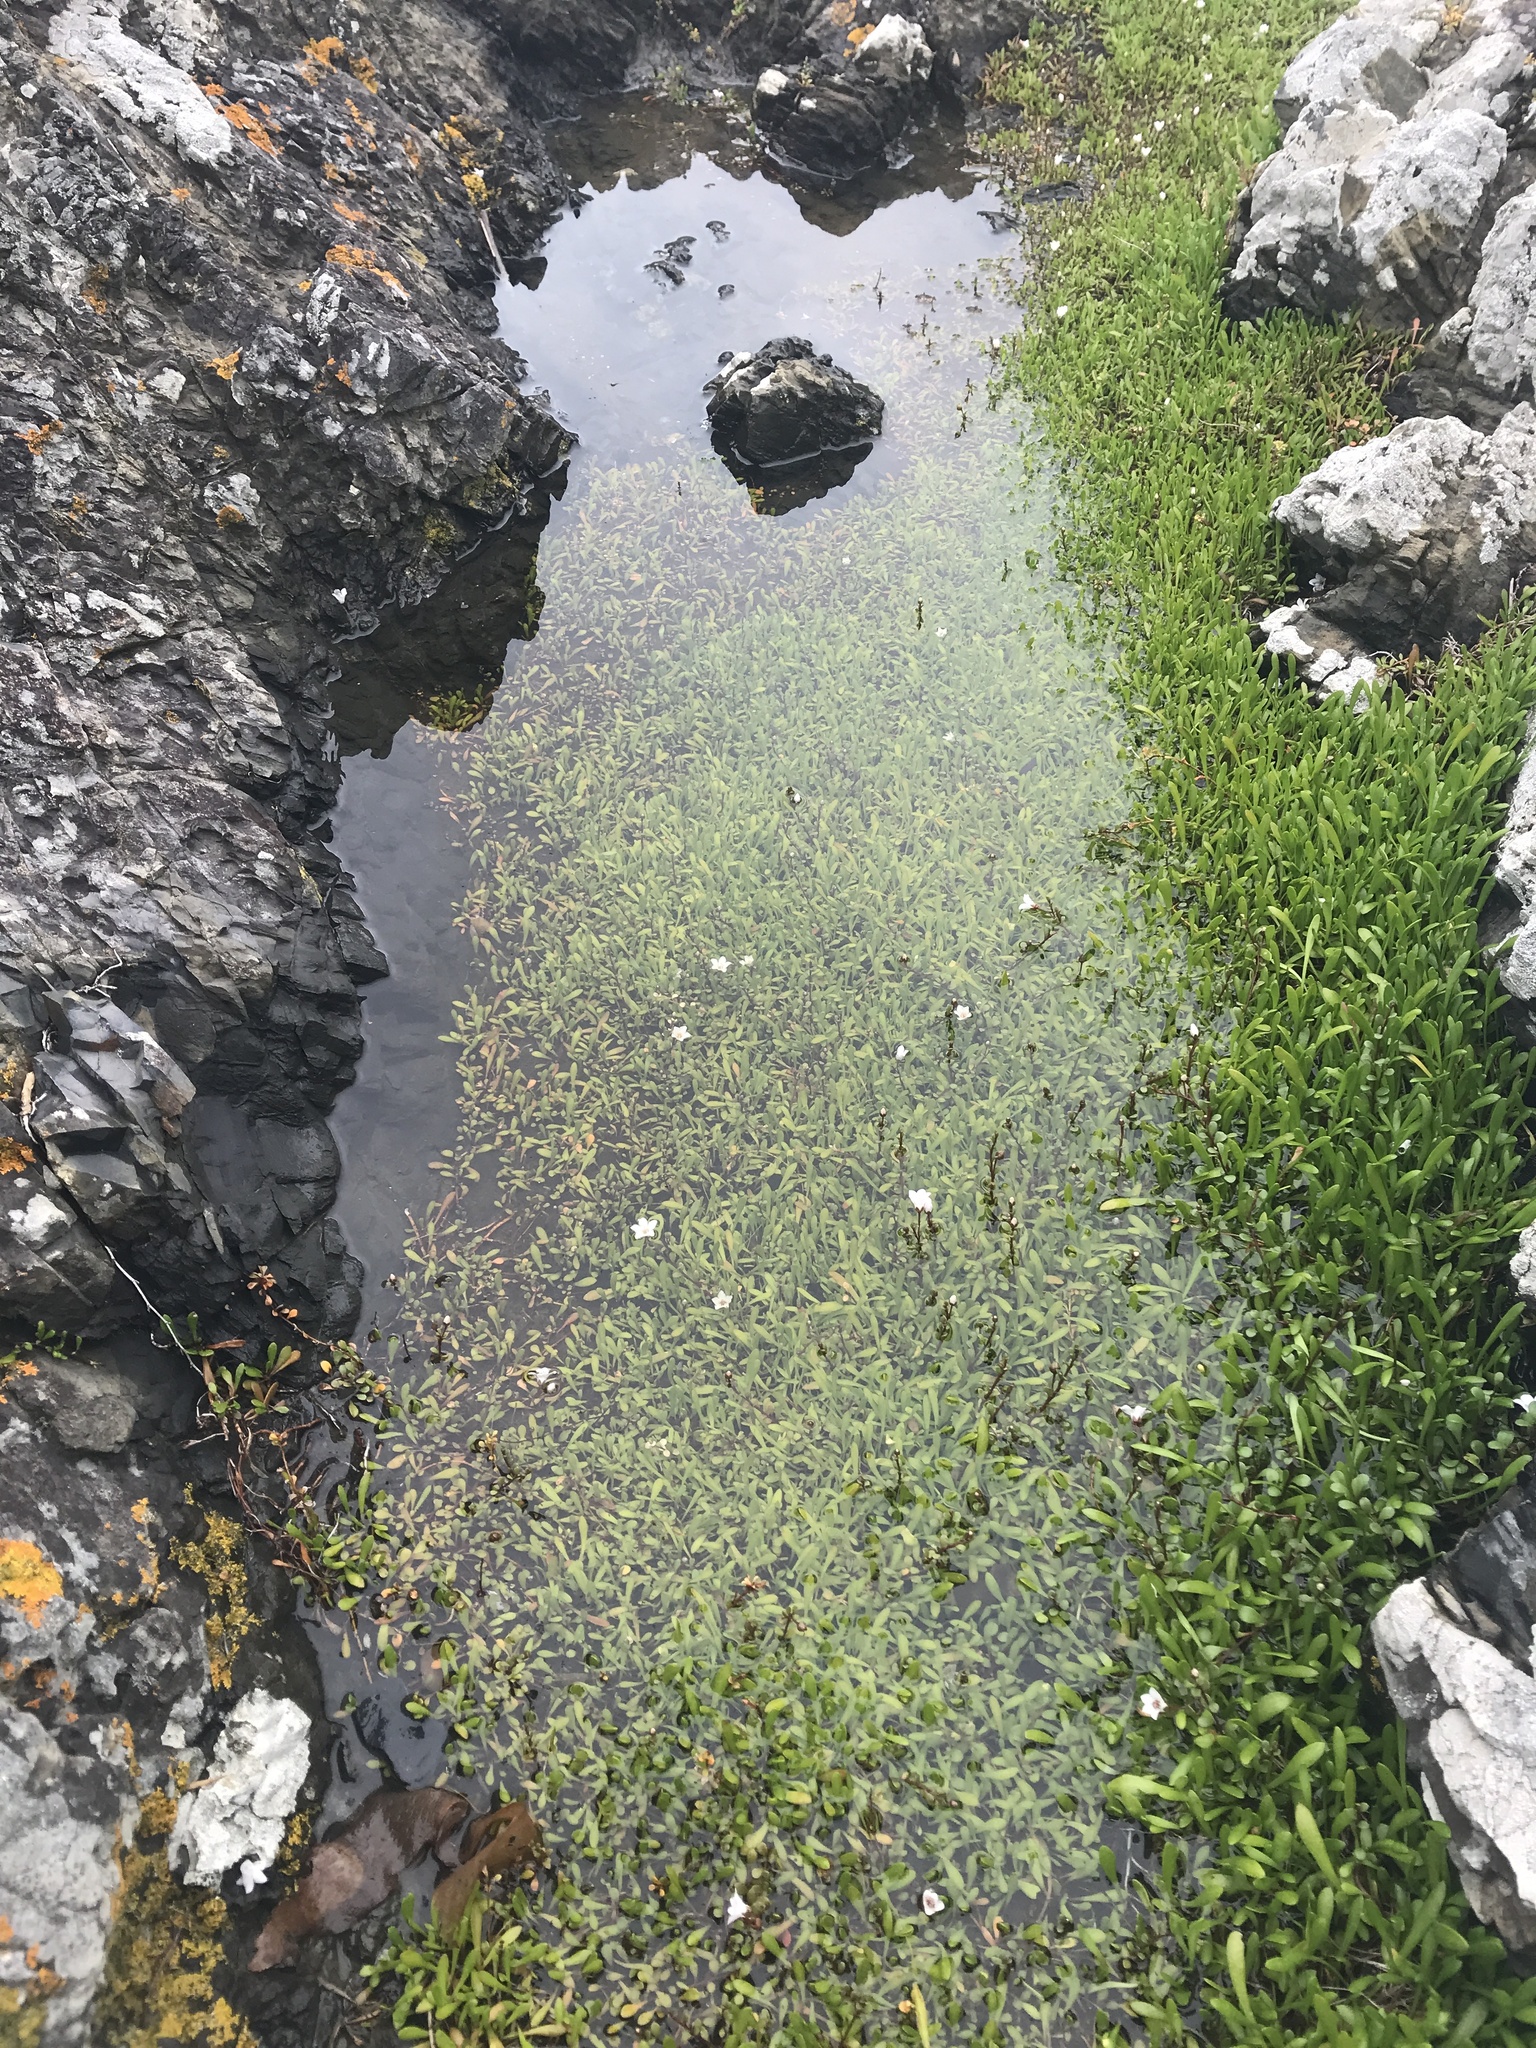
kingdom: Plantae
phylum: Tracheophyta
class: Magnoliopsida
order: Asterales
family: Goodeniaceae
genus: Goodenia
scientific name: Goodenia radicans
